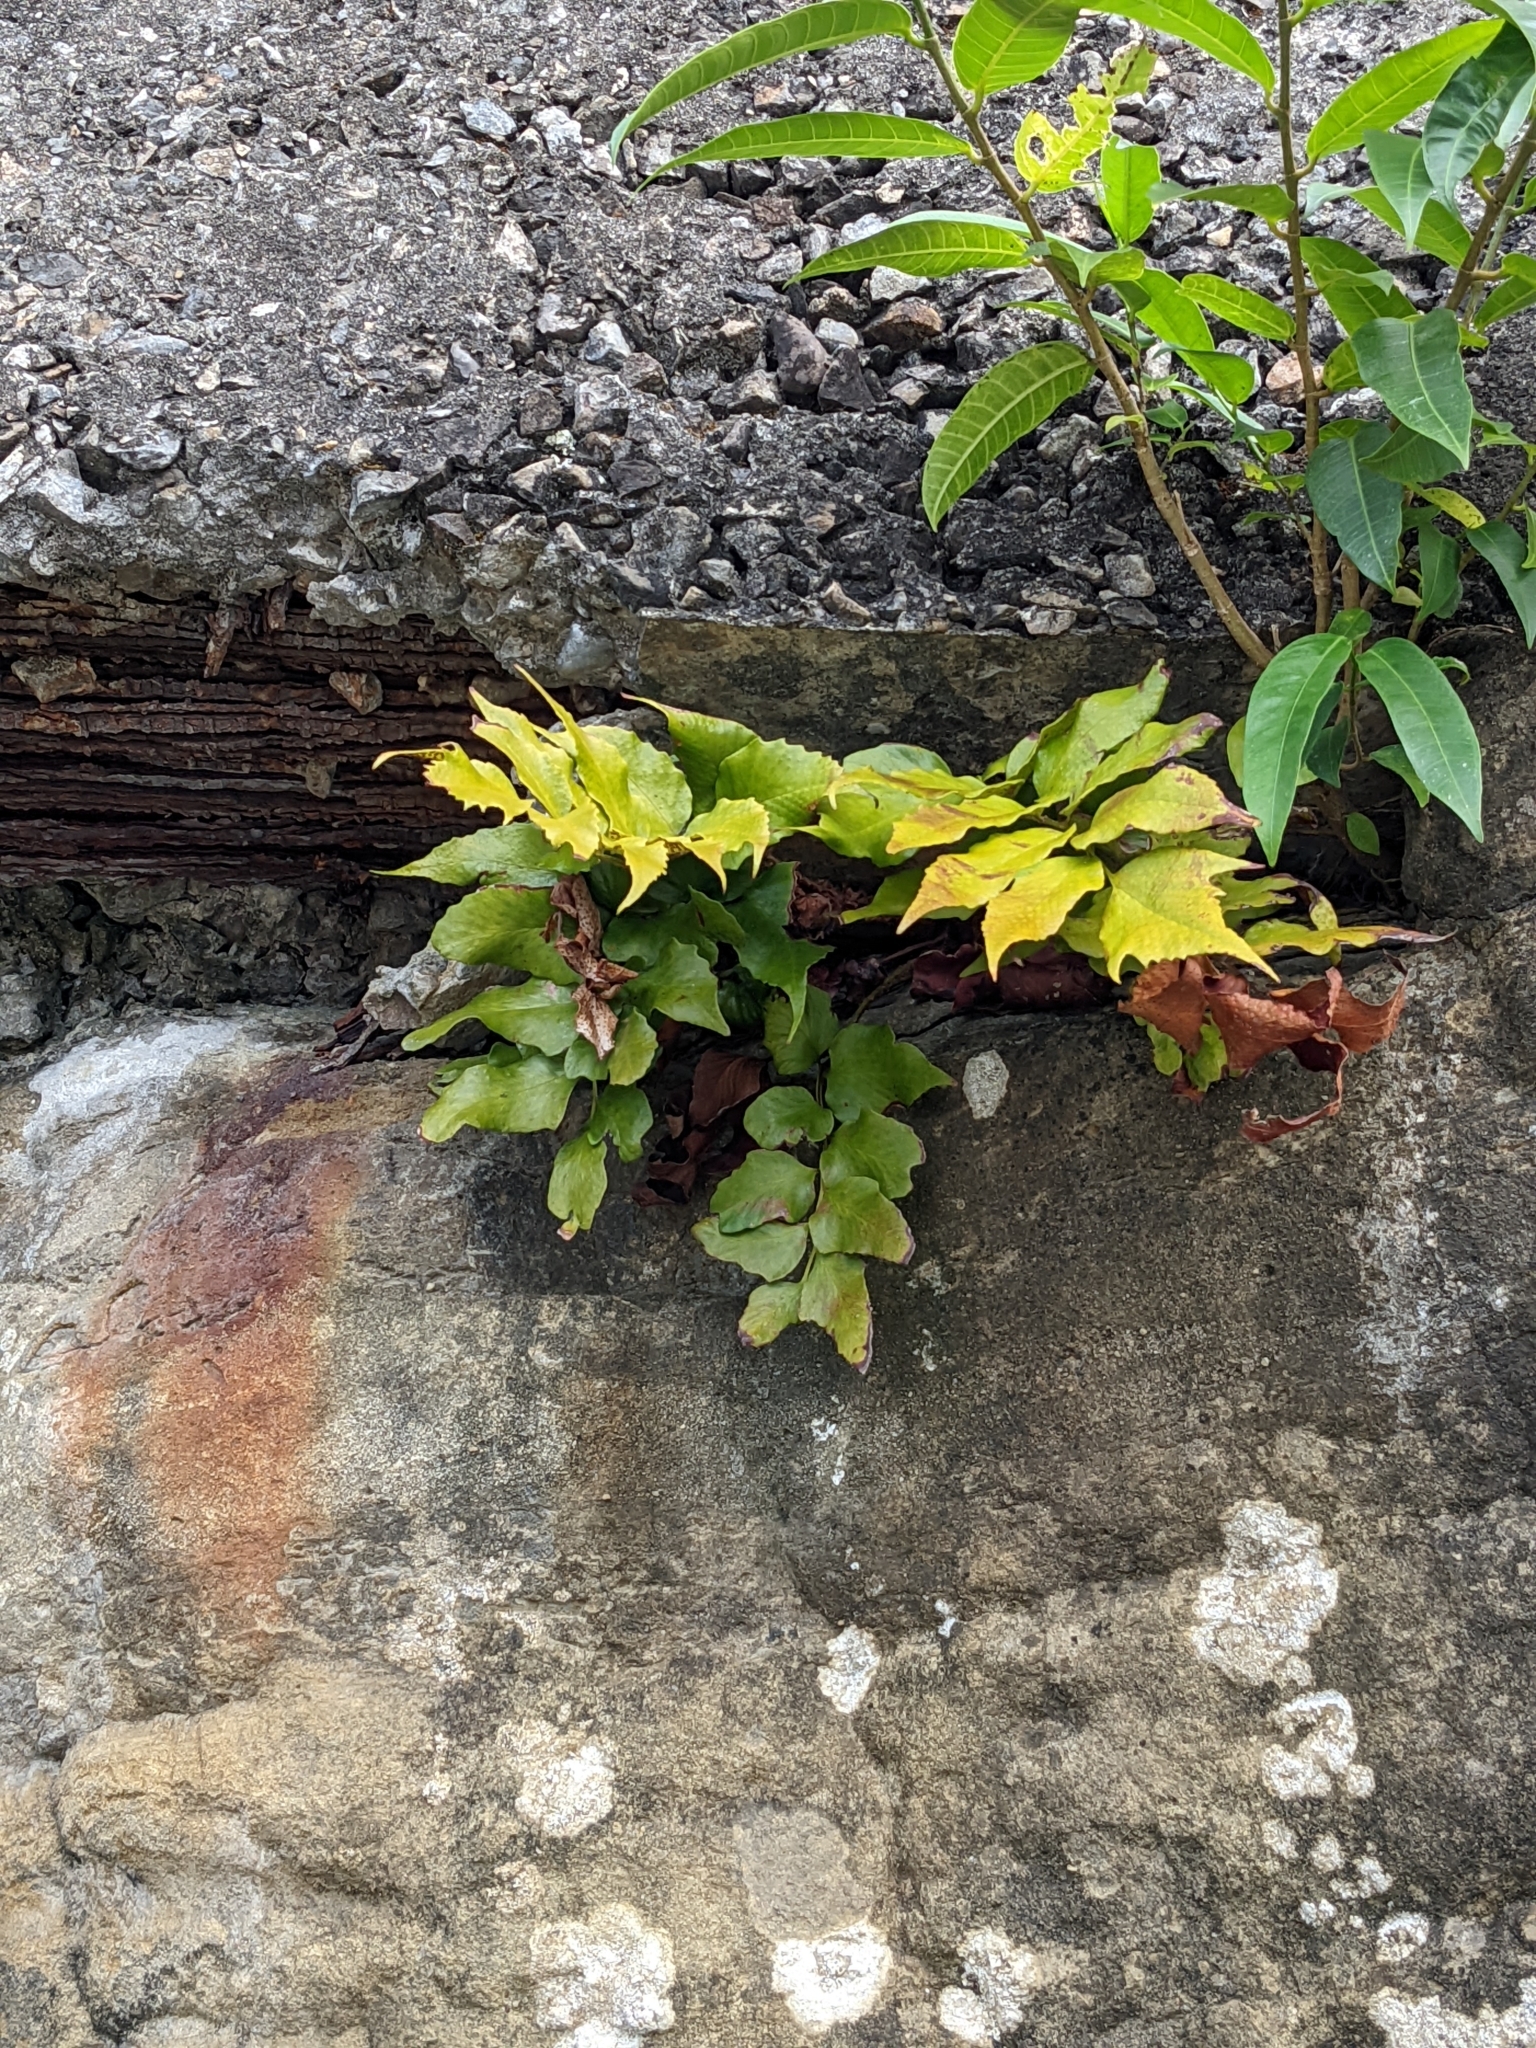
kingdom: Plantae
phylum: Tracheophyta
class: Polypodiopsida
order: Polypodiales
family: Dryopteridaceae
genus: Cyrtomium
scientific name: Cyrtomium falcatum
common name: House holly-fern
